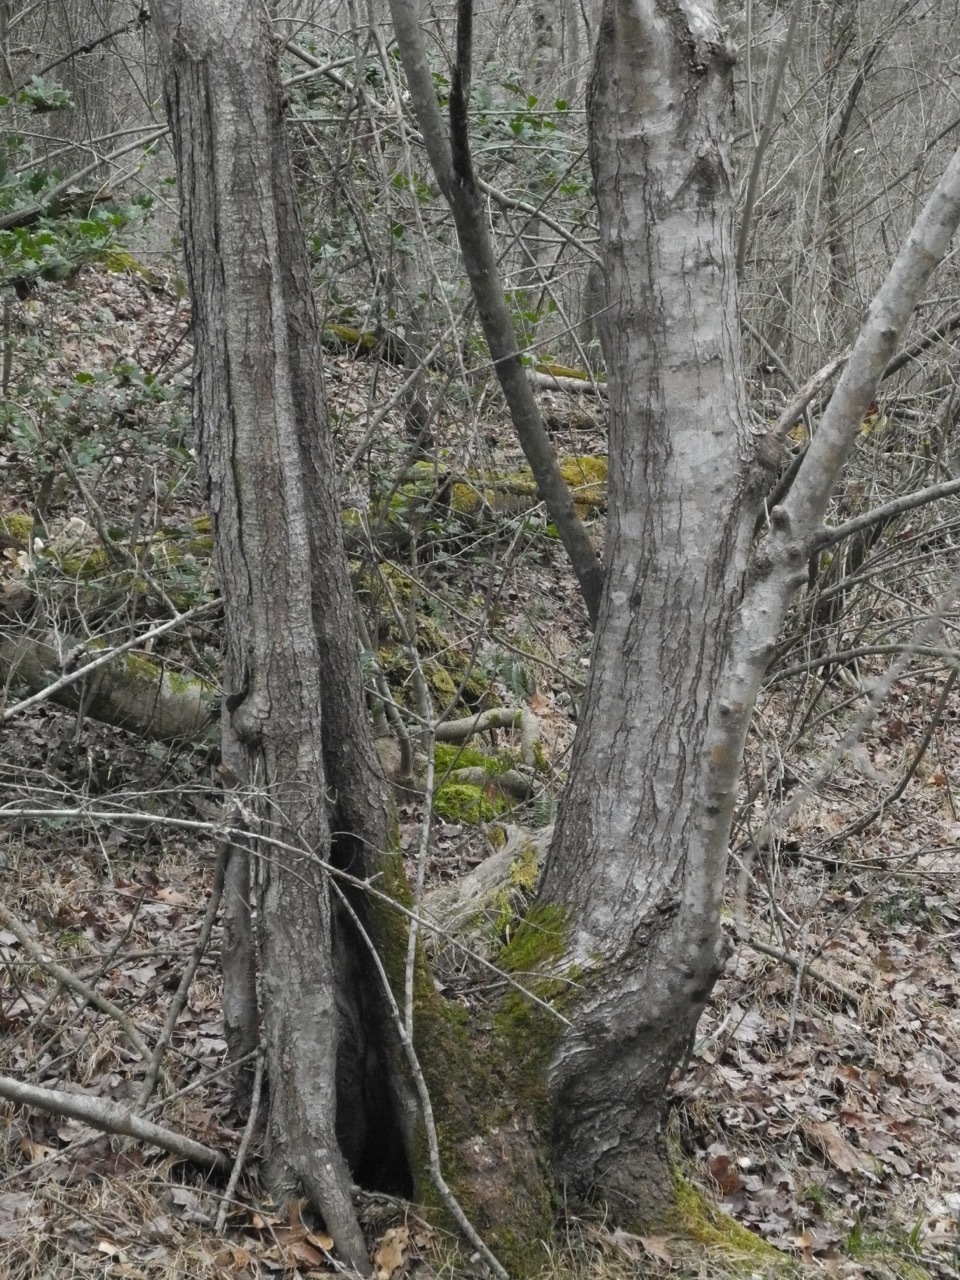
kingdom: Plantae
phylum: Tracheophyta
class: Magnoliopsida
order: Sapindales
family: Sapindaceae
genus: Acer
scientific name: Acer freemanii
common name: Freeman maple
